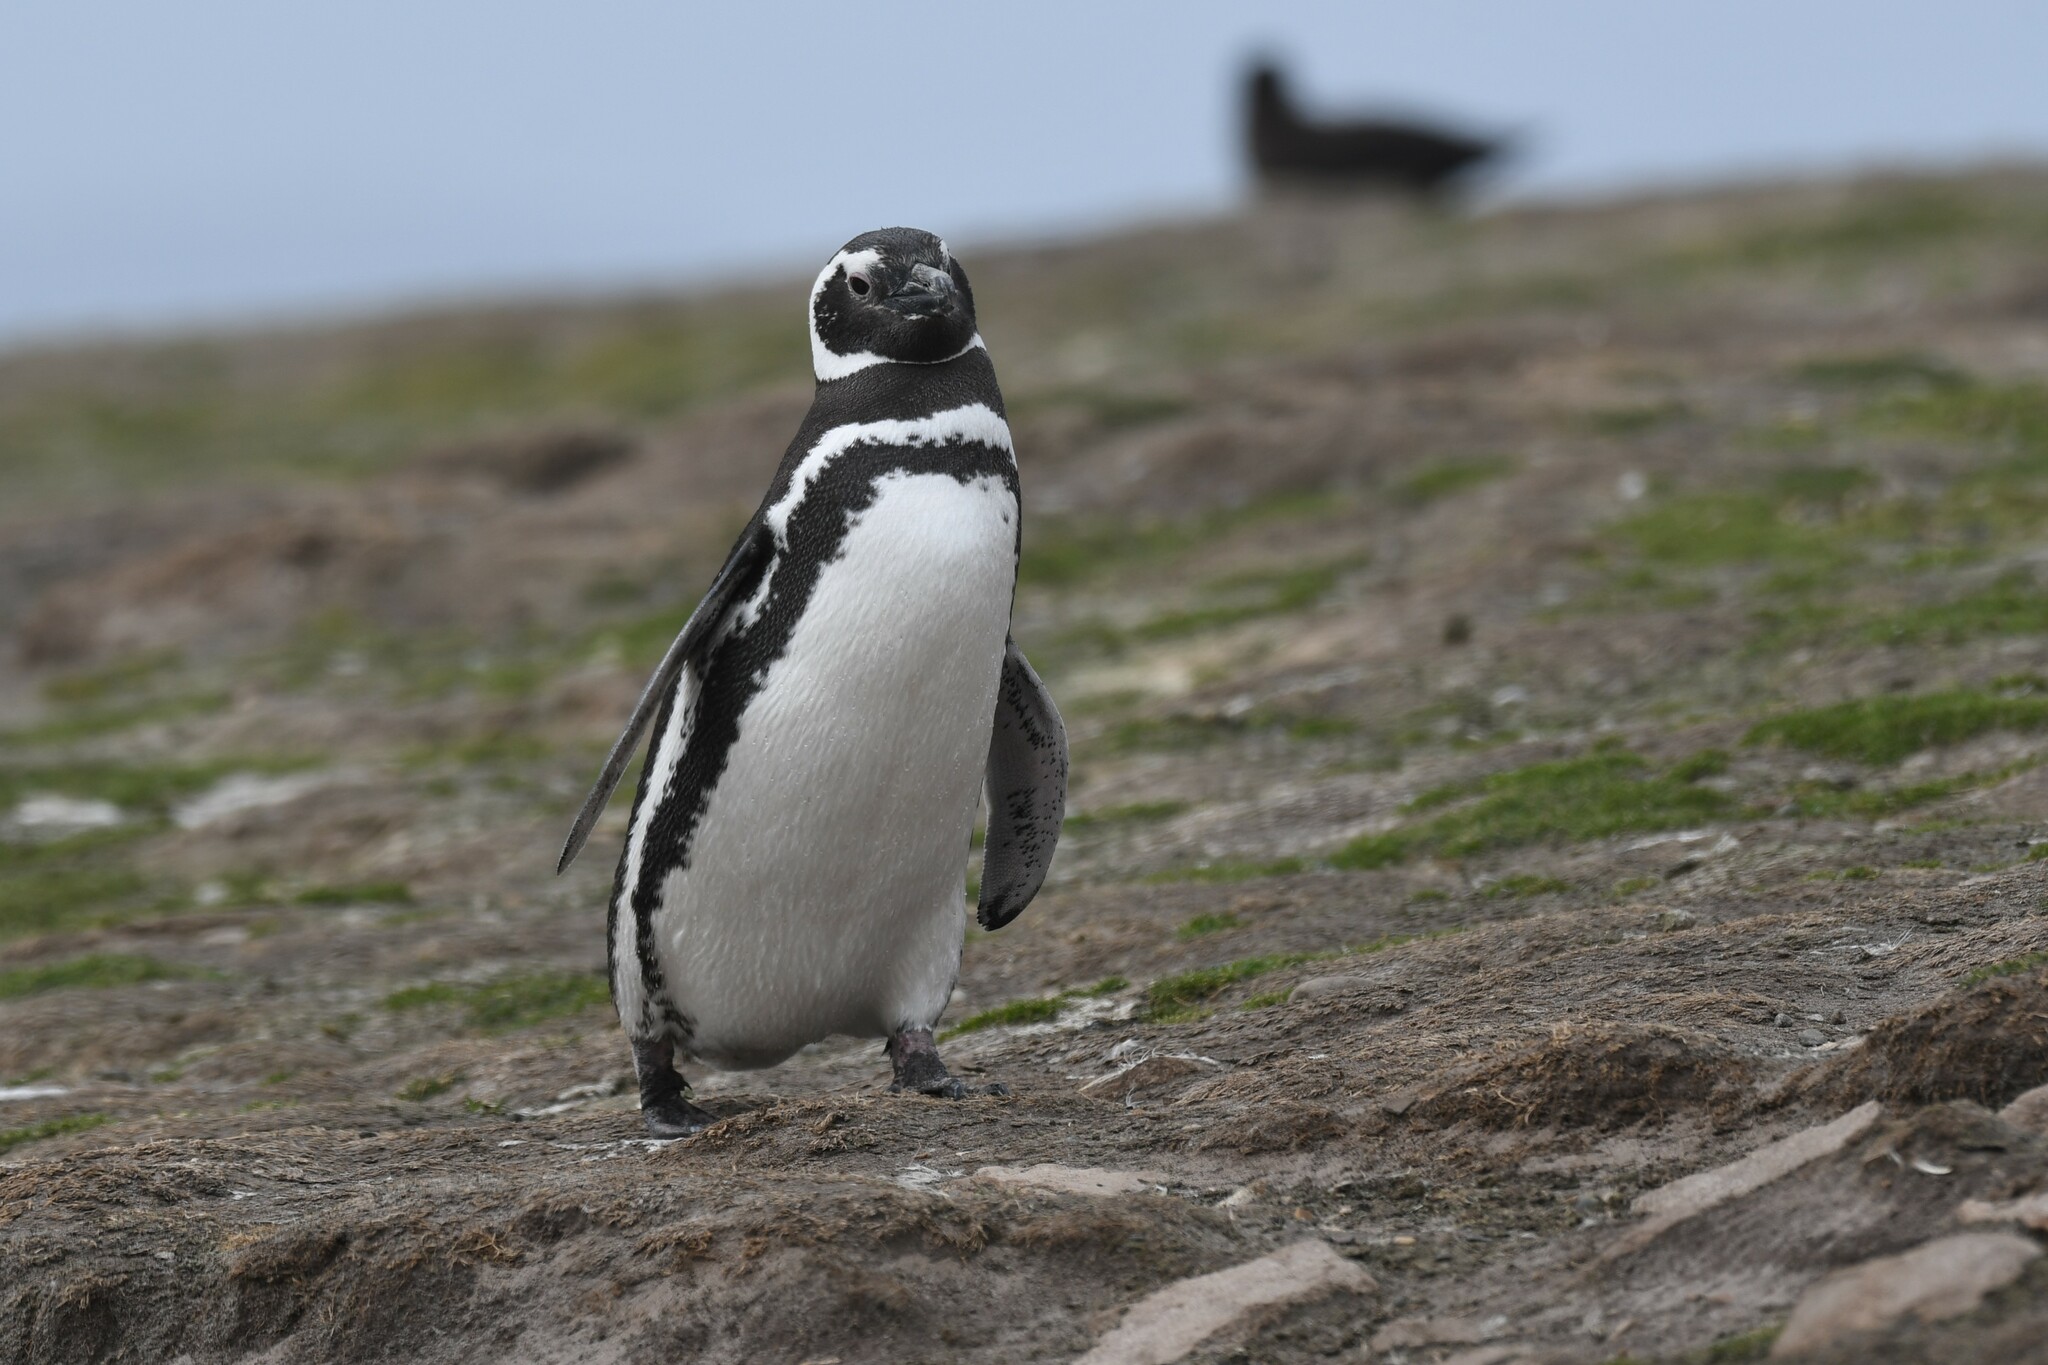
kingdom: Animalia
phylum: Chordata
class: Aves
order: Sphenisciformes
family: Spheniscidae
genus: Spheniscus
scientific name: Spheniscus magellanicus
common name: Magellanic penguin
